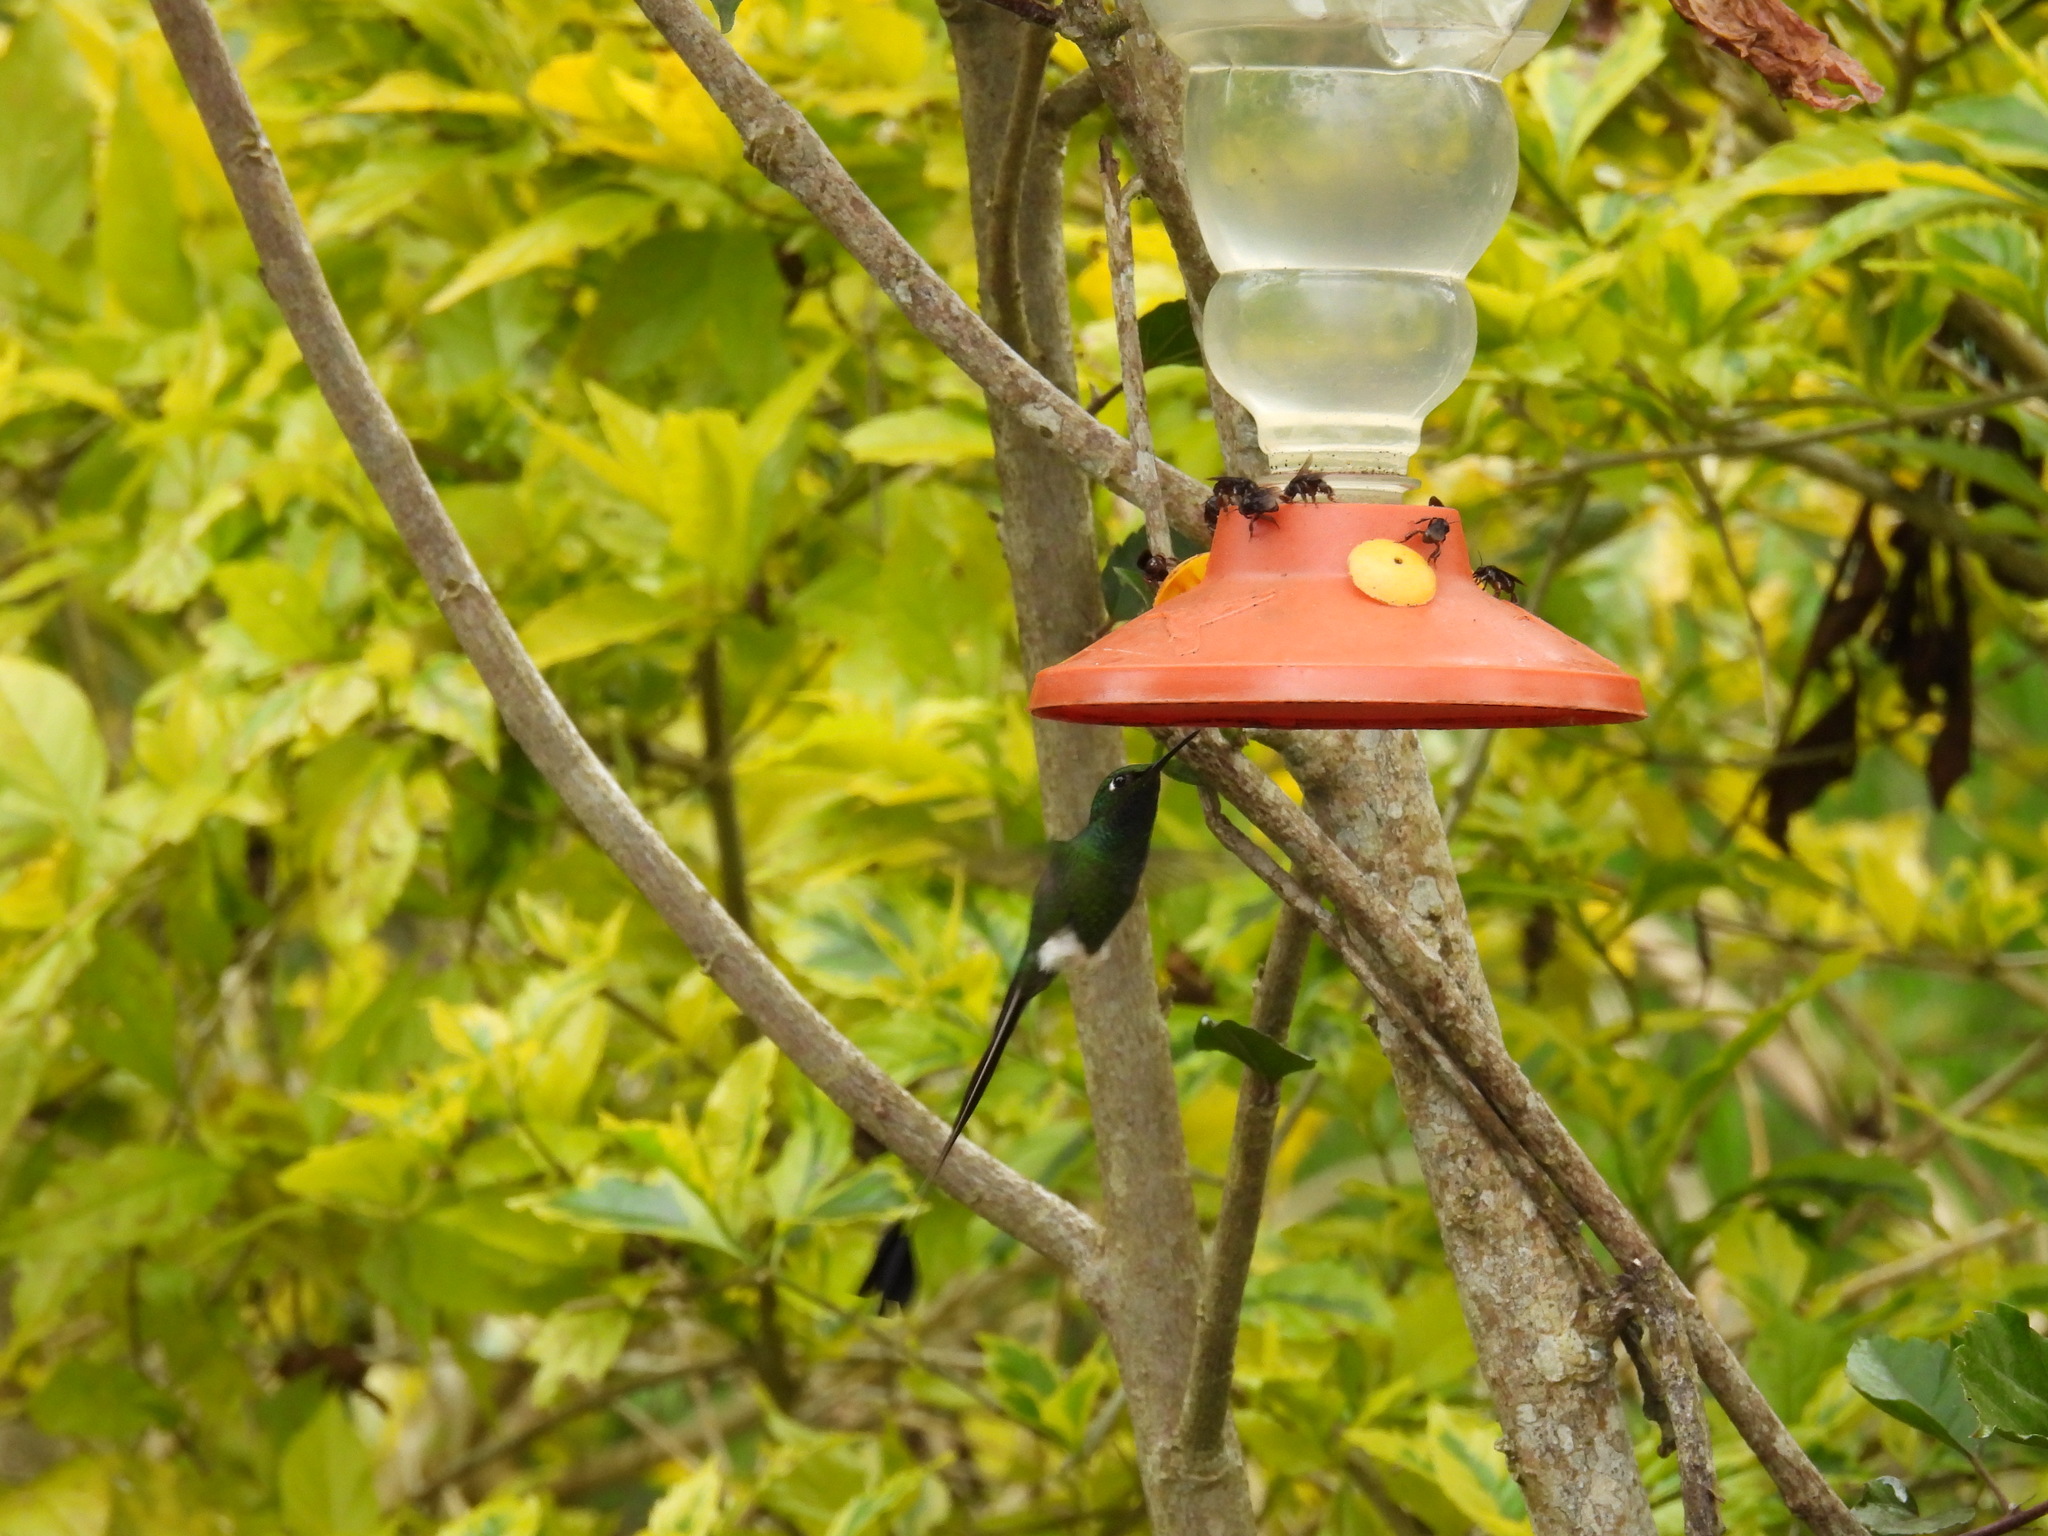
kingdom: Animalia
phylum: Chordata
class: Aves
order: Apodiformes
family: Trochilidae
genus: Ocreatus
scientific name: Ocreatus underwoodii
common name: Booted racket-tail
